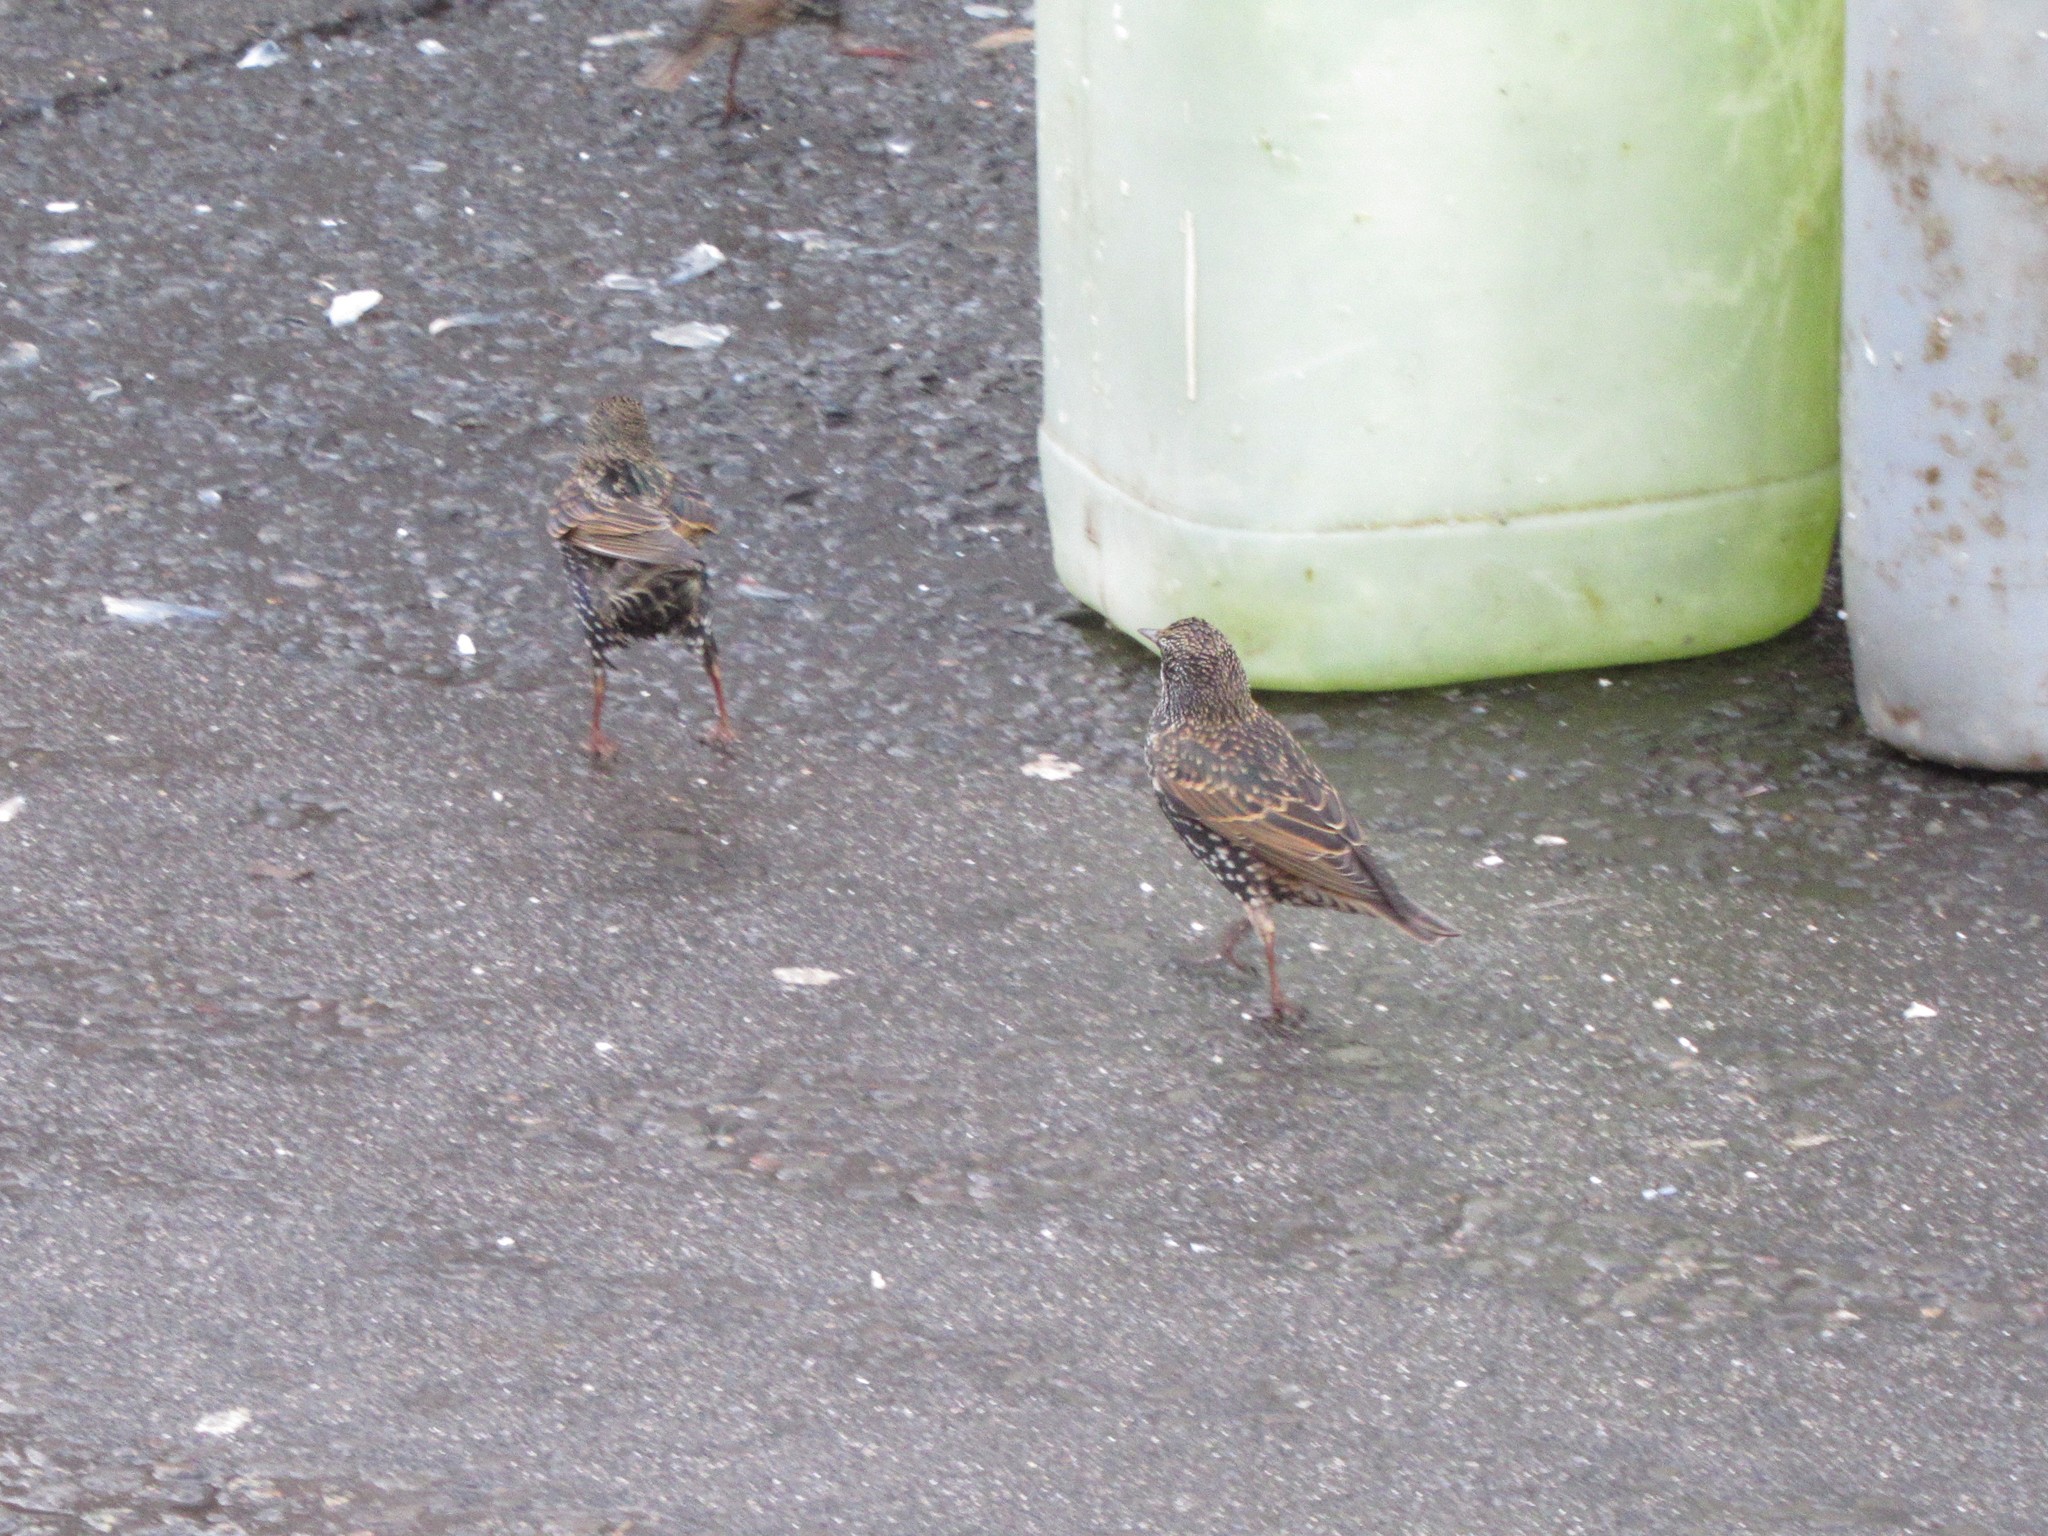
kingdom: Animalia
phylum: Chordata
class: Aves
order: Passeriformes
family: Sturnidae
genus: Sturnus
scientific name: Sturnus vulgaris
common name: Common starling
